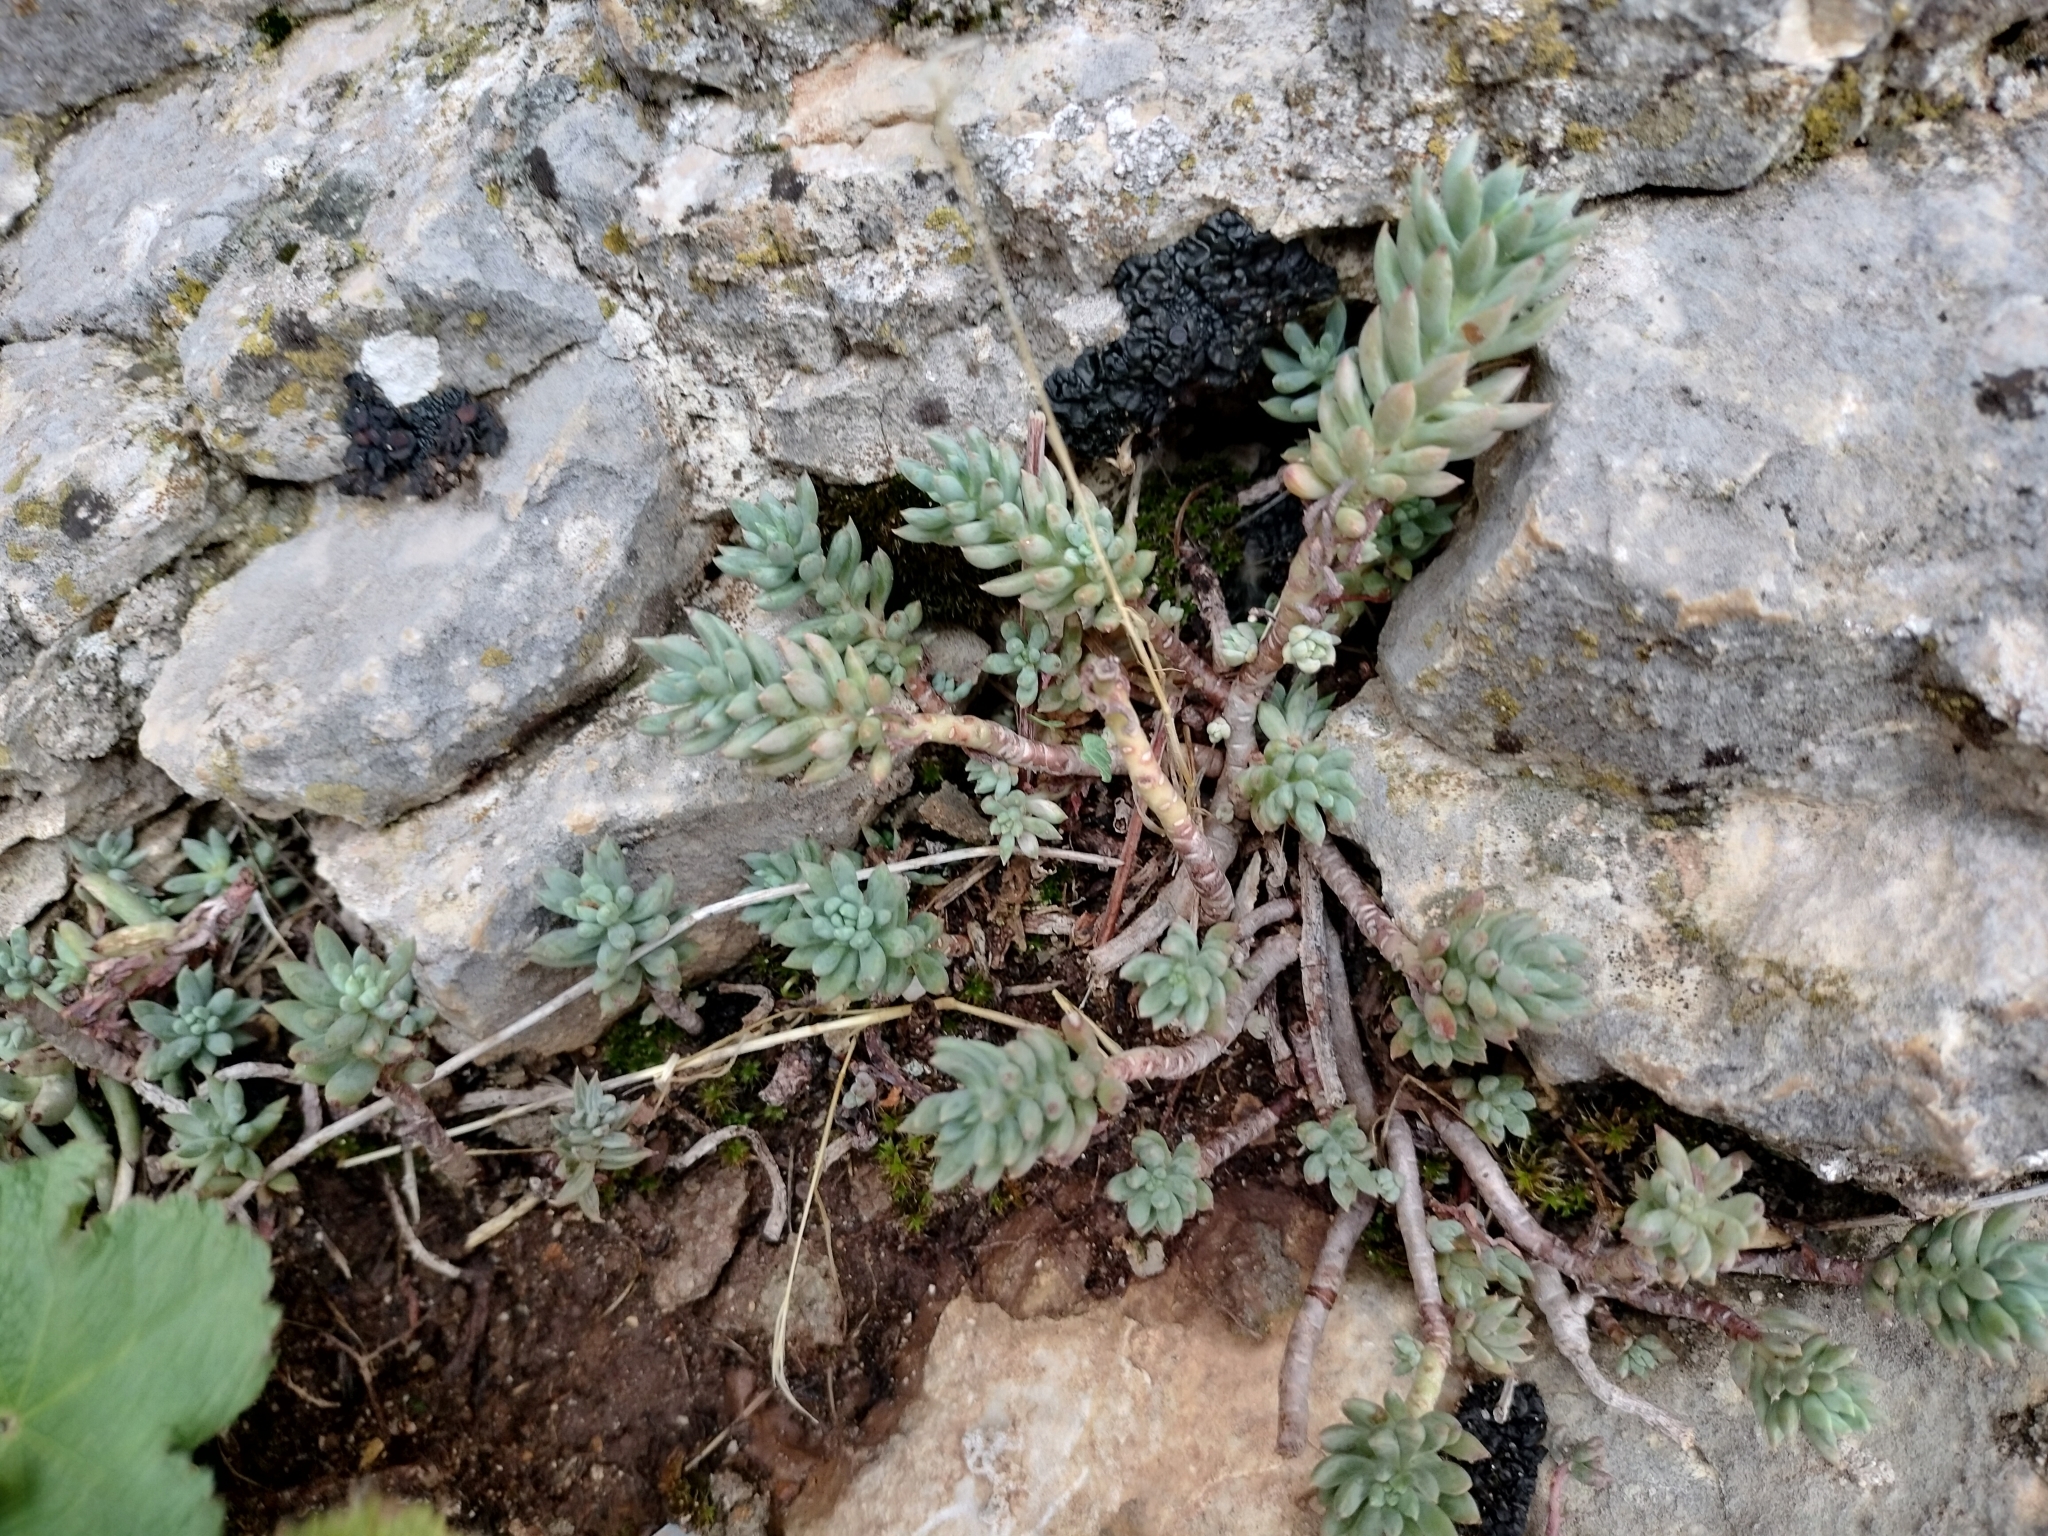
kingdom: Plantae
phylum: Tracheophyta
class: Magnoliopsida
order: Saxifragales
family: Crassulaceae
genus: Petrosedum
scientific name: Petrosedum sediforme
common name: Pale stonecrop
